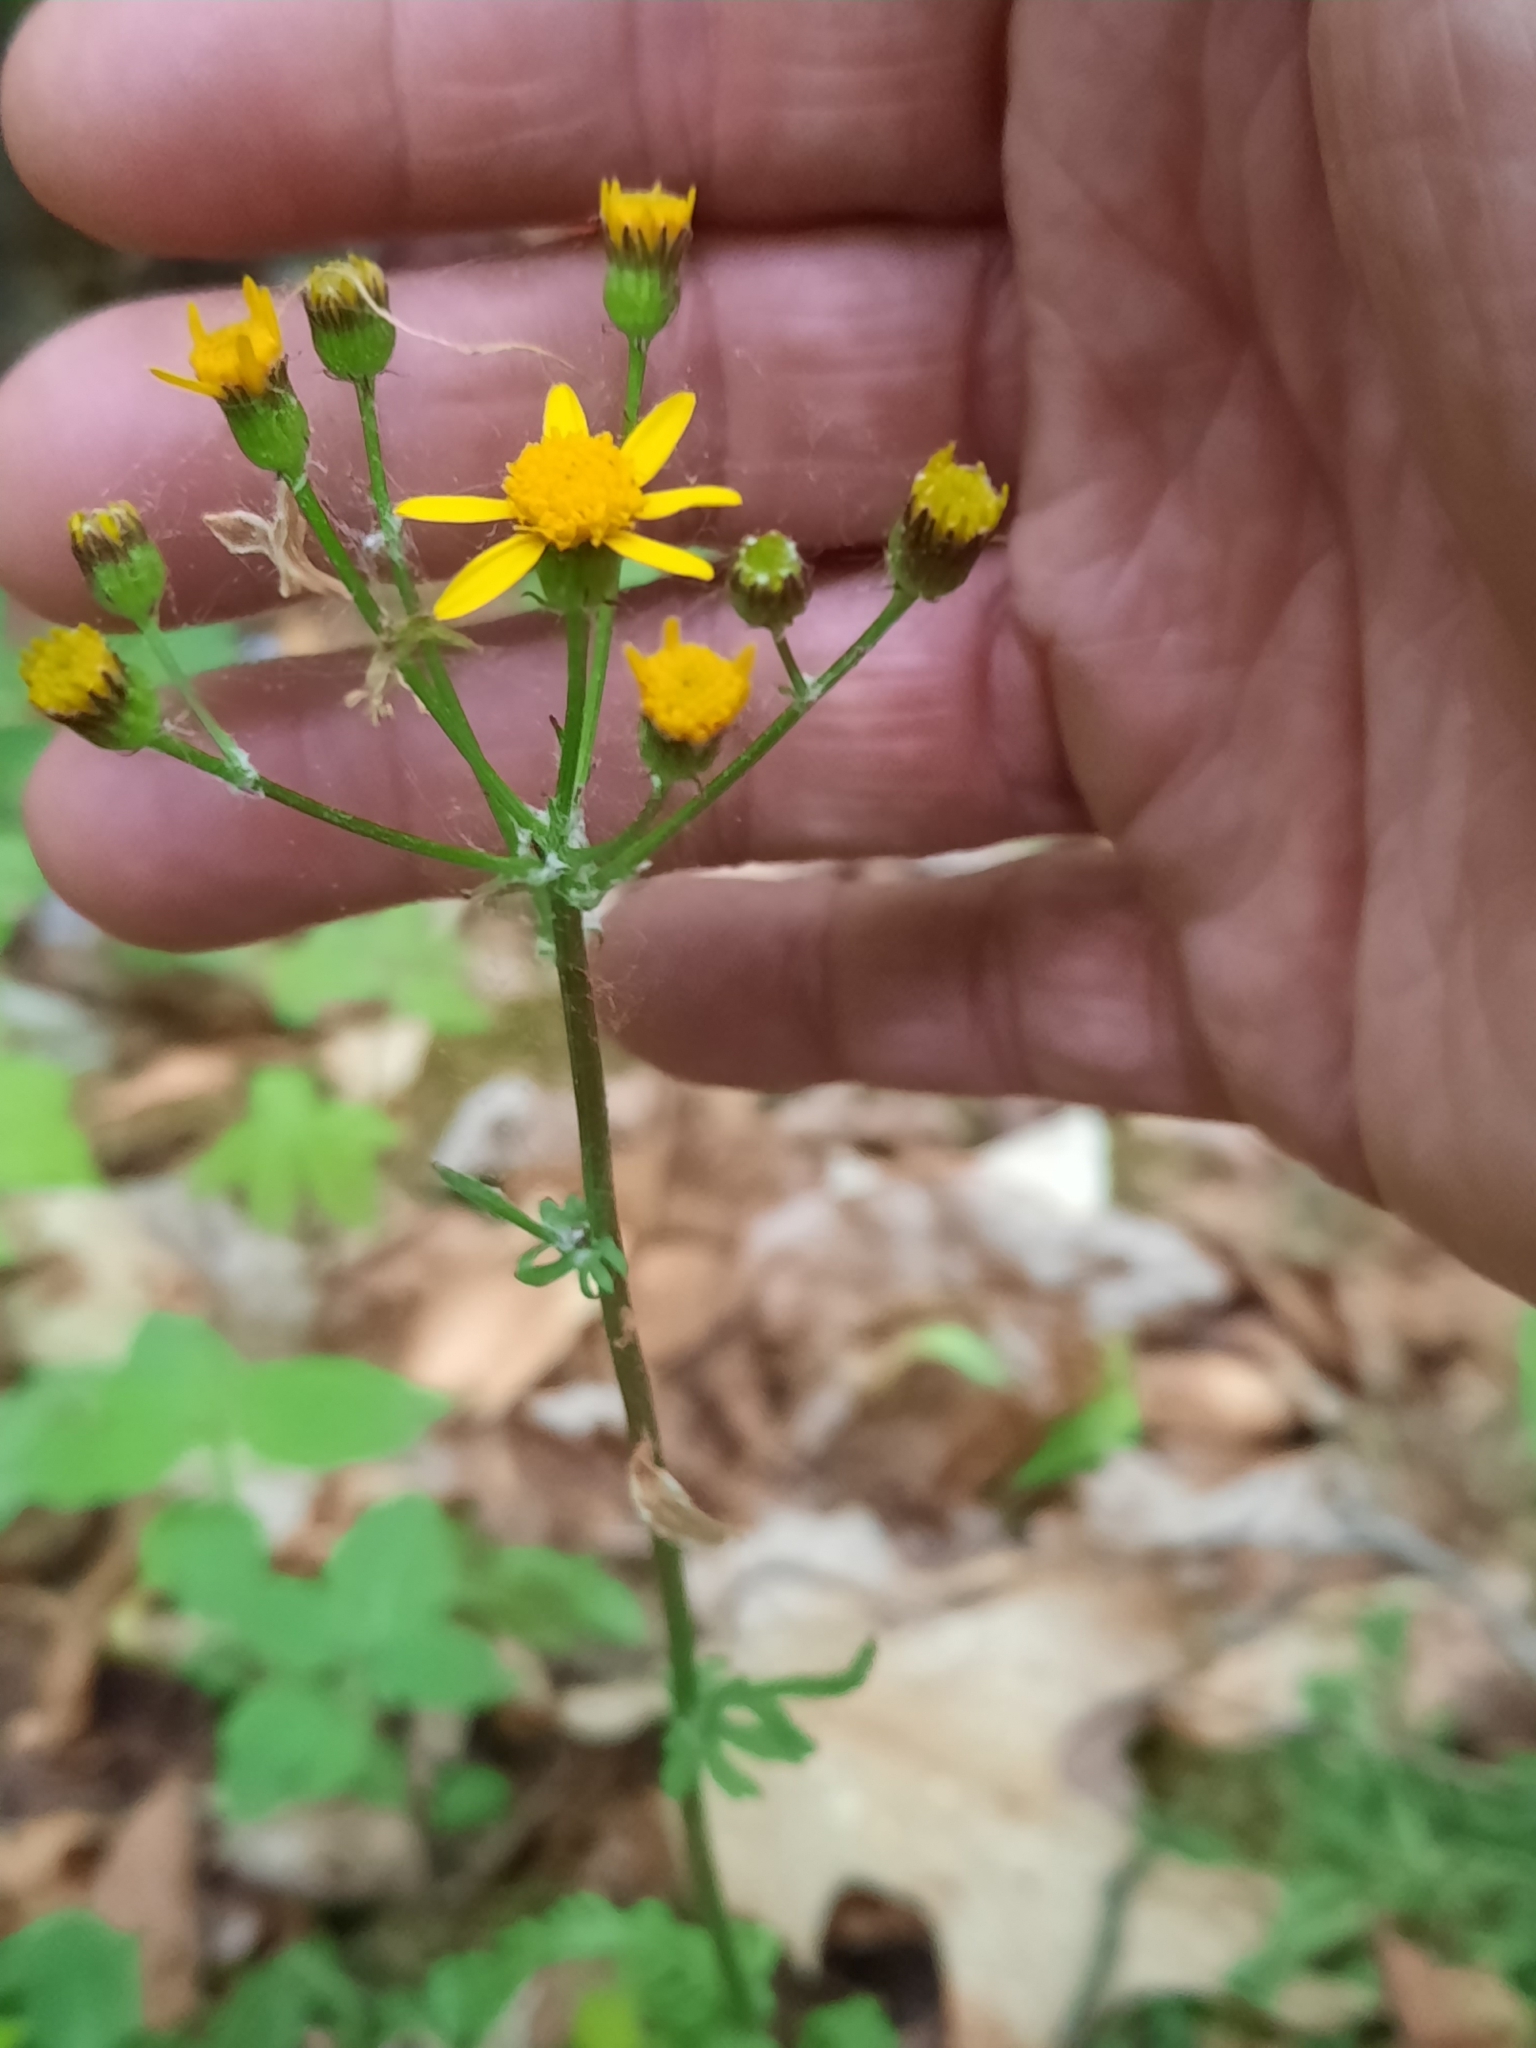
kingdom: Plantae
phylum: Tracheophyta
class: Magnoliopsida
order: Asterales
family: Asteraceae
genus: Packera
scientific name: Packera obovata
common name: Round-leaf ragwort
